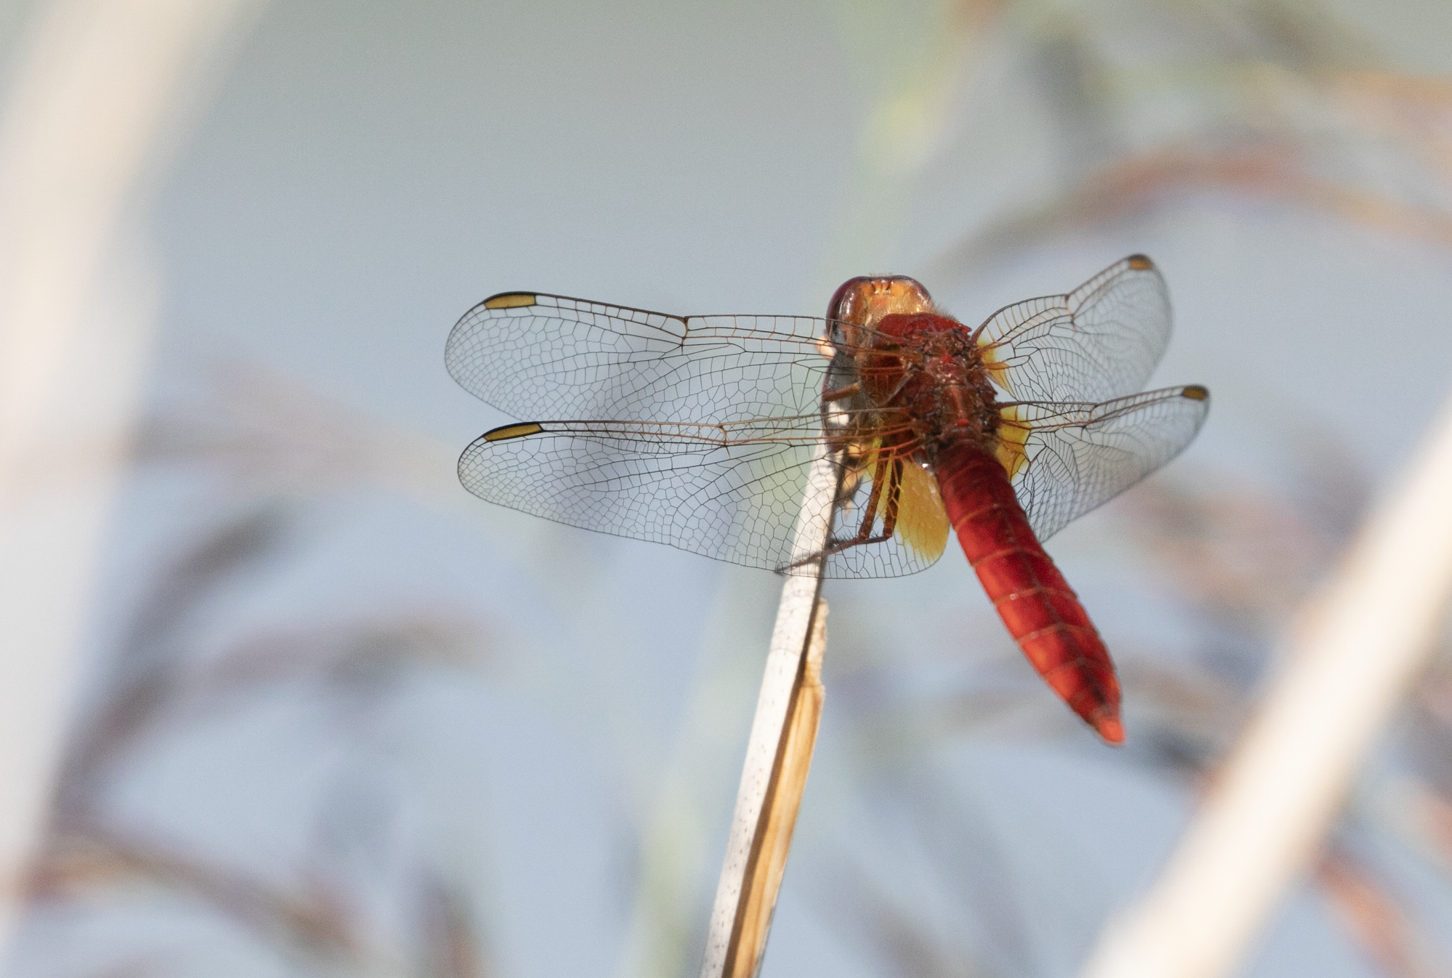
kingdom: Animalia
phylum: Arthropoda
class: Insecta
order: Odonata
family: Libellulidae
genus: Crocothemis
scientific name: Crocothemis erythraea
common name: Scarlet dragonfly
